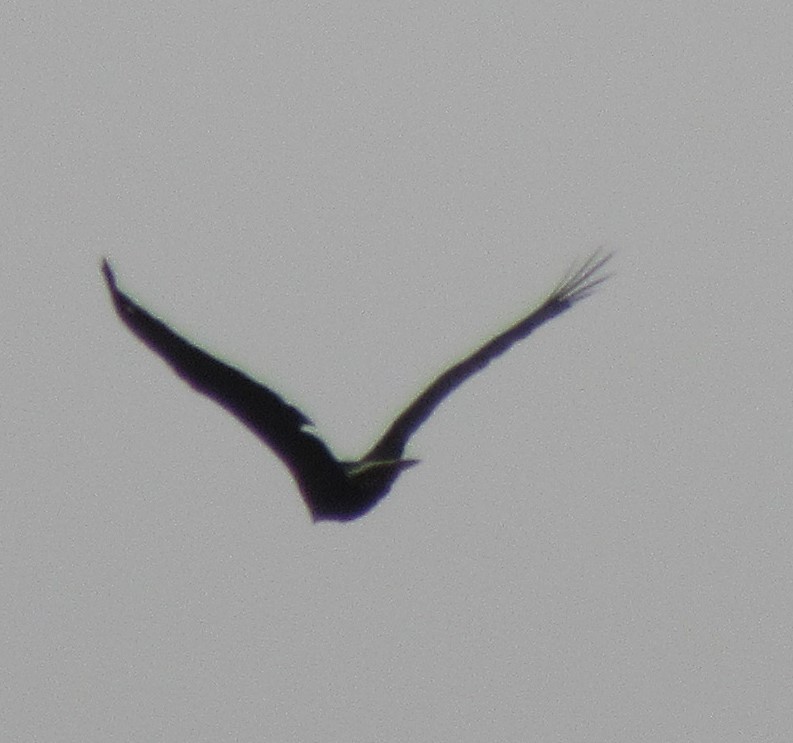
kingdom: Animalia
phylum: Chordata
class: Aves
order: Accipitriformes
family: Accipitridae
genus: Haliaeetus
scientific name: Haliaeetus leucocephalus
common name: Bald eagle
